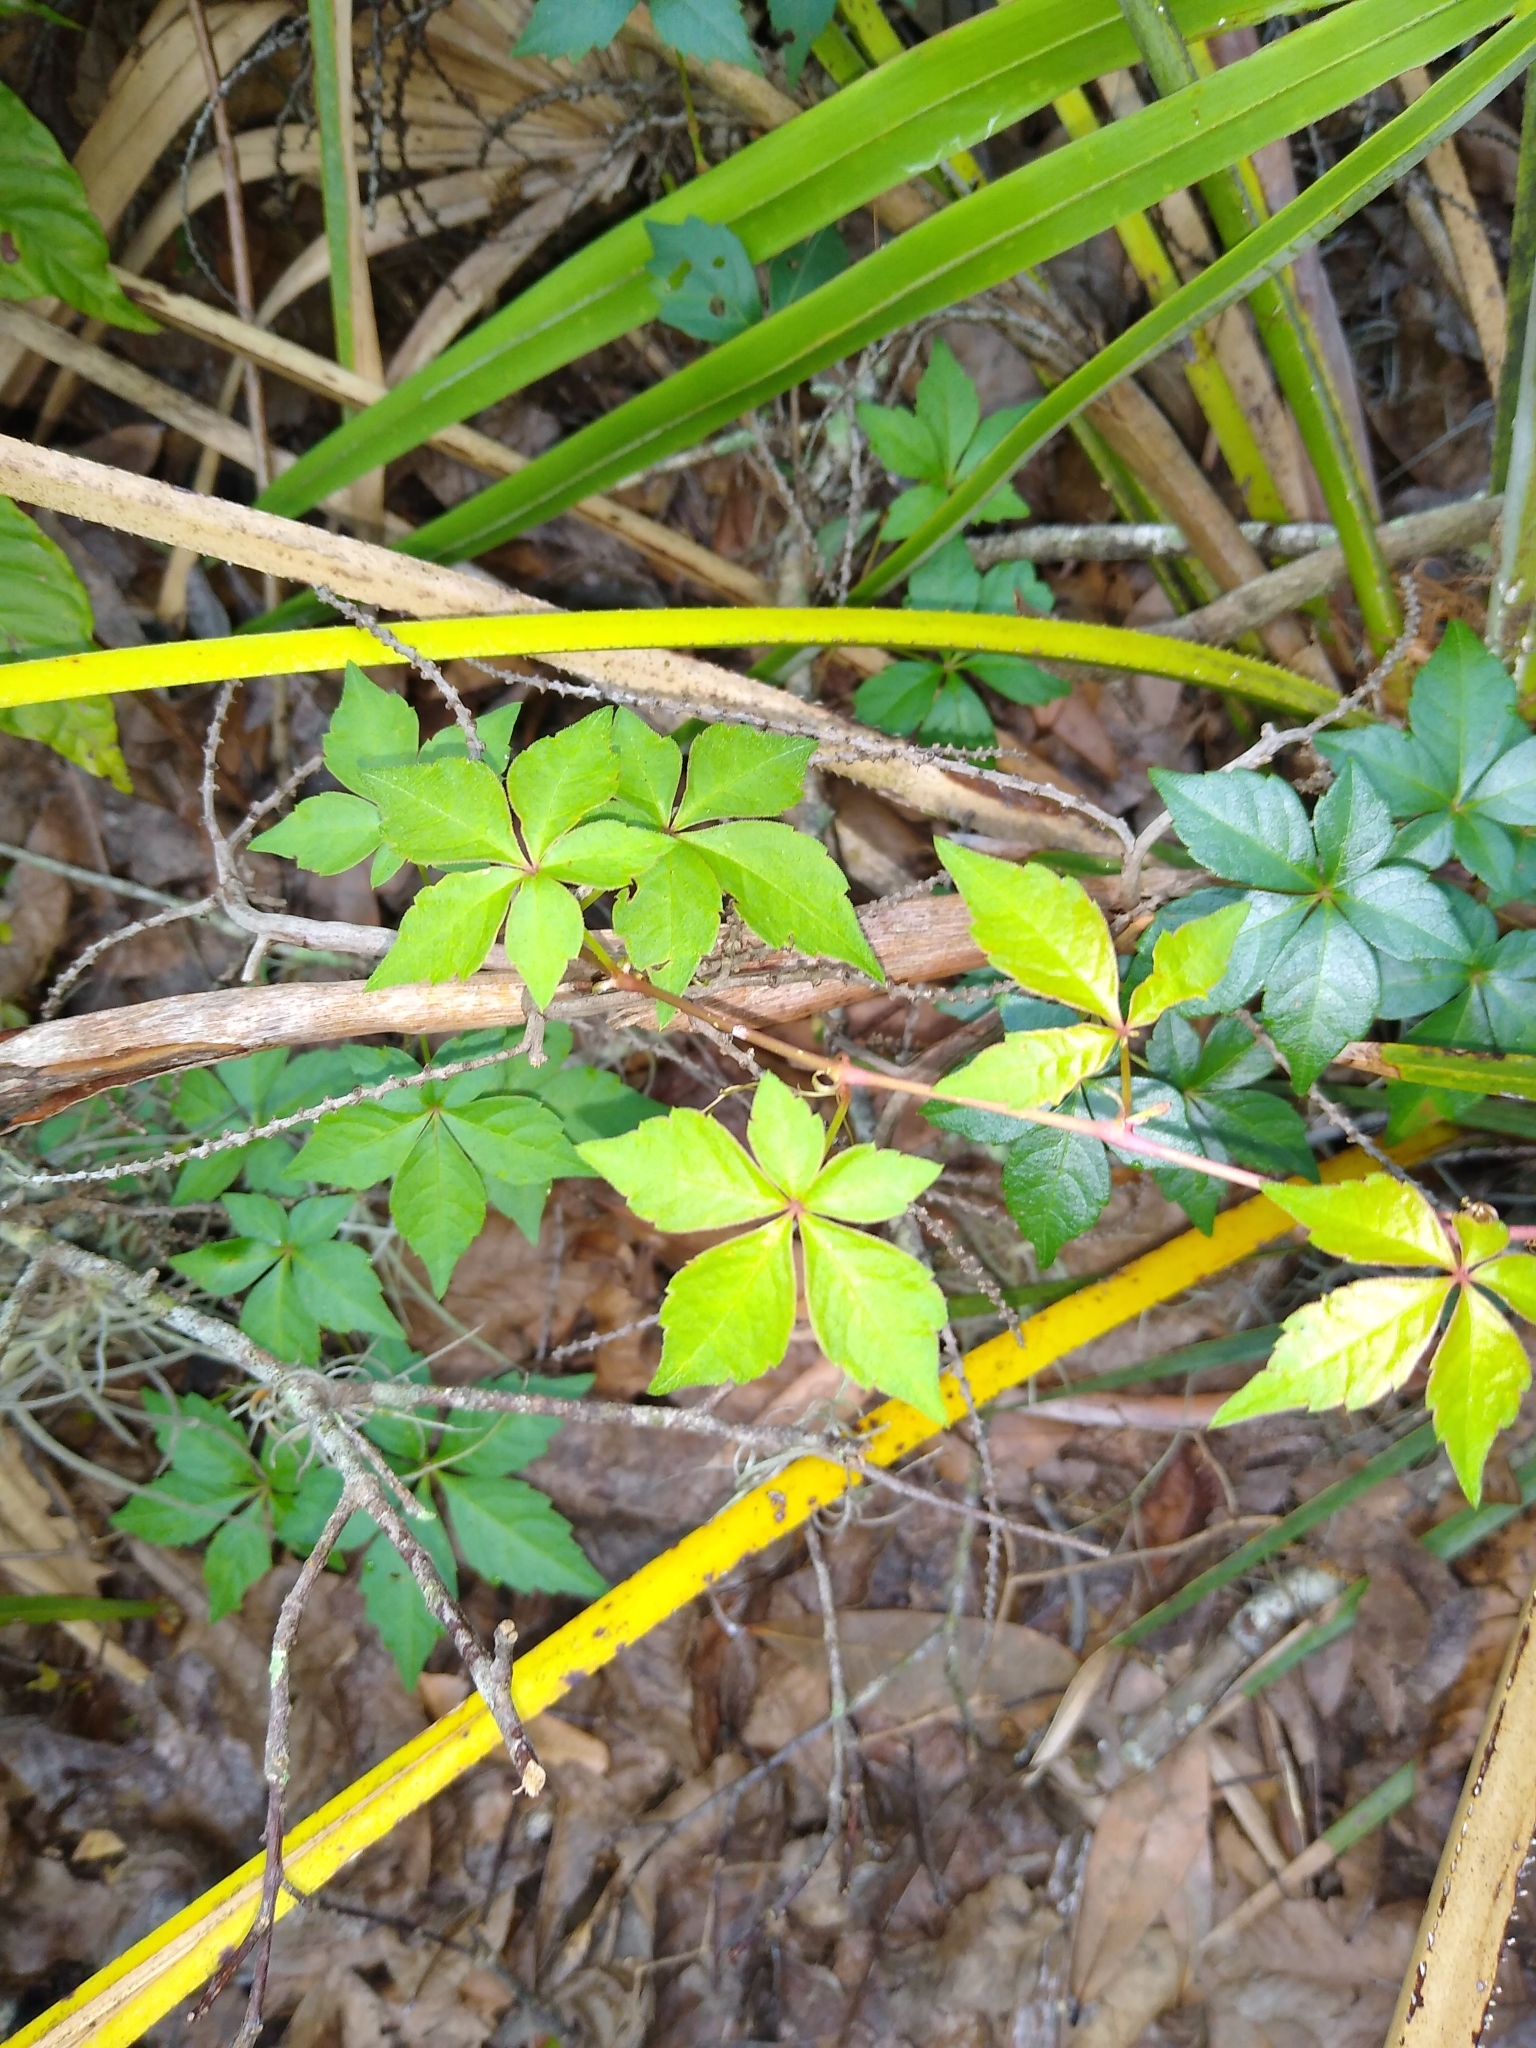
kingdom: Plantae
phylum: Tracheophyta
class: Magnoliopsida
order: Vitales
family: Vitaceae
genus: Parthenocissus
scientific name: Parthenocissus quinquefolia
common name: Virginia-creeper
